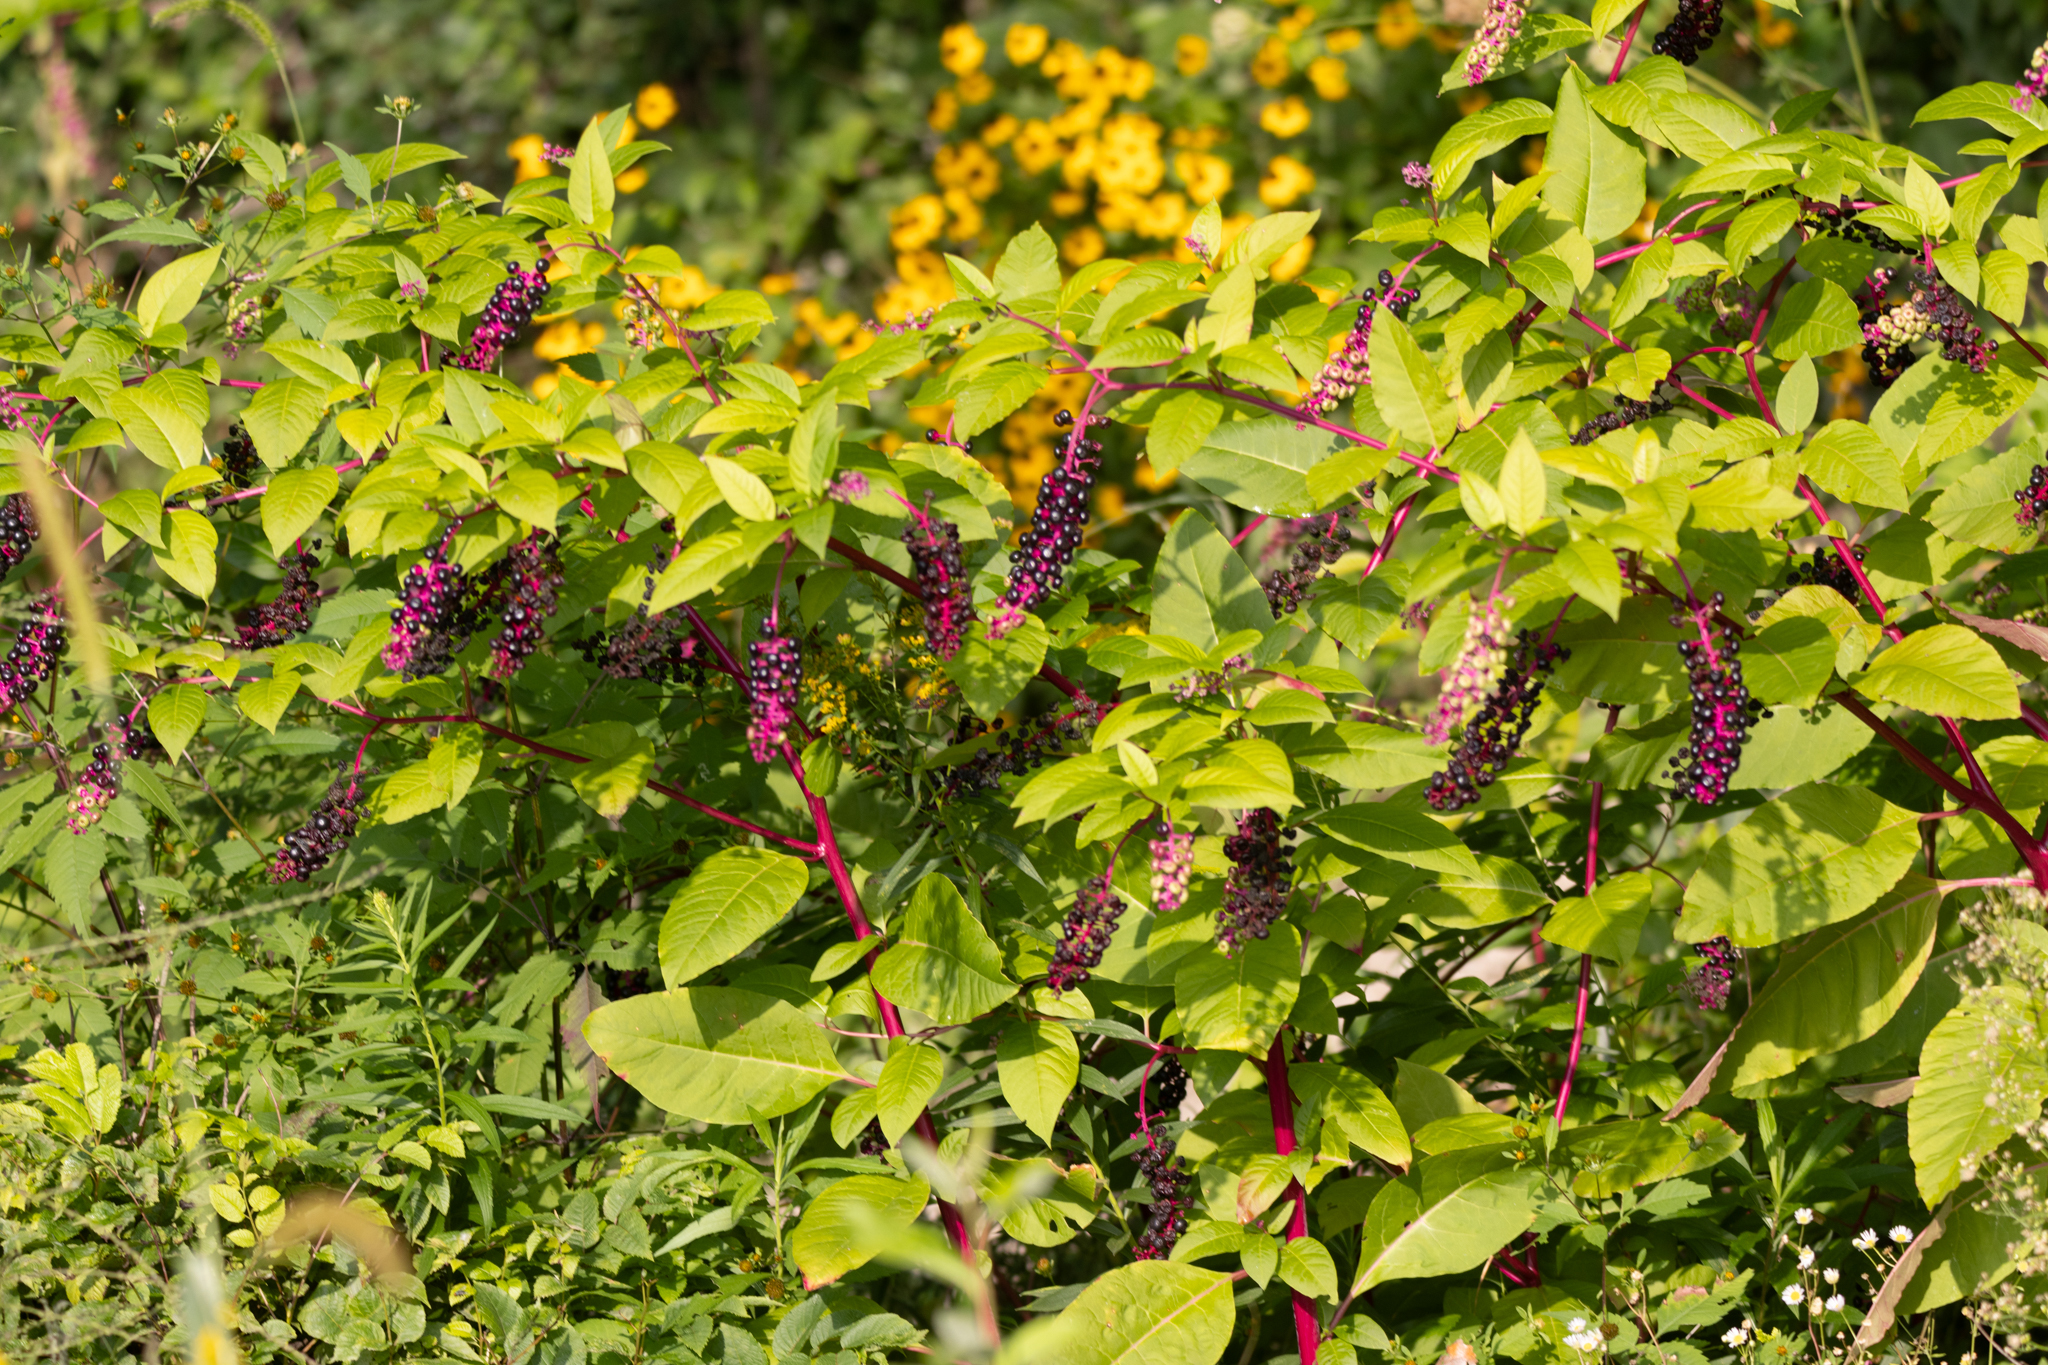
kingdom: Plantae
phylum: Tracheophyta
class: Magnoliopsida
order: Caryophyllales
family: Phytolaccaceae
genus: Phytolacca
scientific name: Phytolacca americana
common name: American pokeweed
